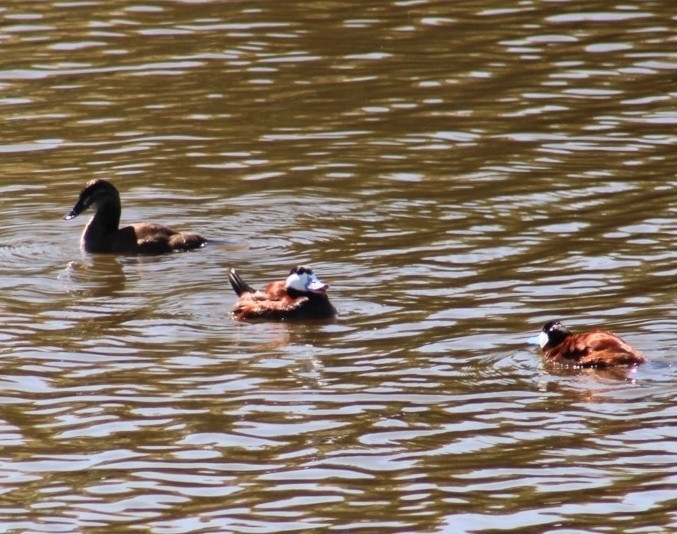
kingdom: Animalia
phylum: Chordata
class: Aves
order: Anseriformes
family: Anatidae
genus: Oxyura
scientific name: Oxyura jamaicensis
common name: Ruddy duck
